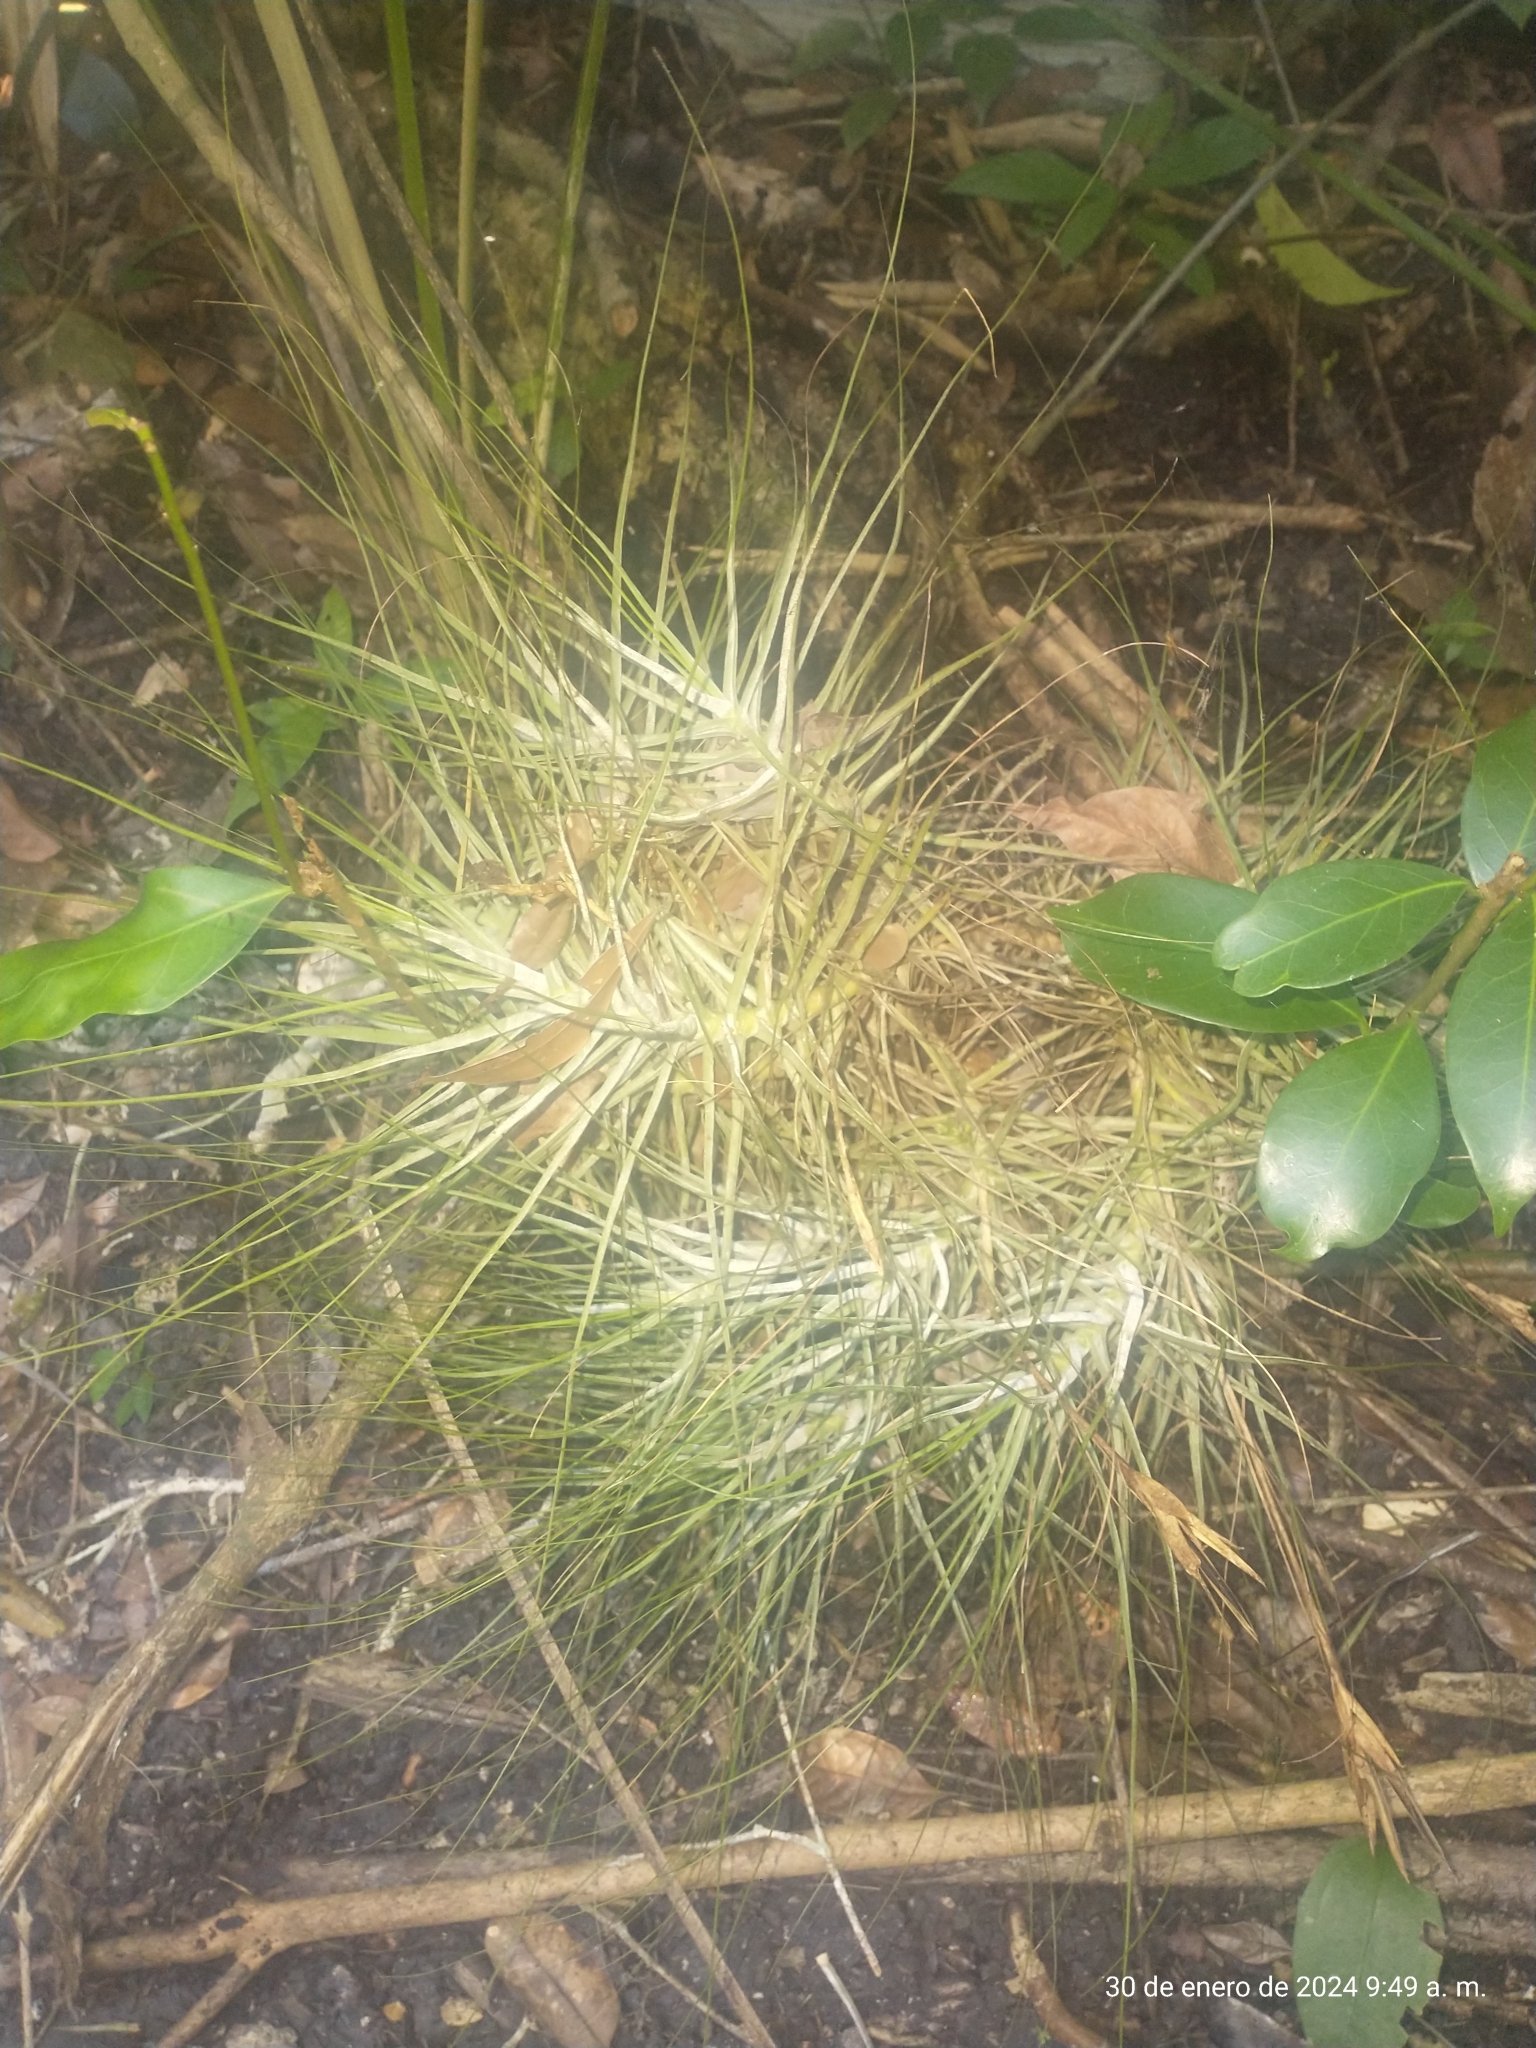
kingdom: Plantae
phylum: Tracheophyta
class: Liliopsida
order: Poales
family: Bromeliaceae
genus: Tillandsia
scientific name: Tillandsia schiedeana
